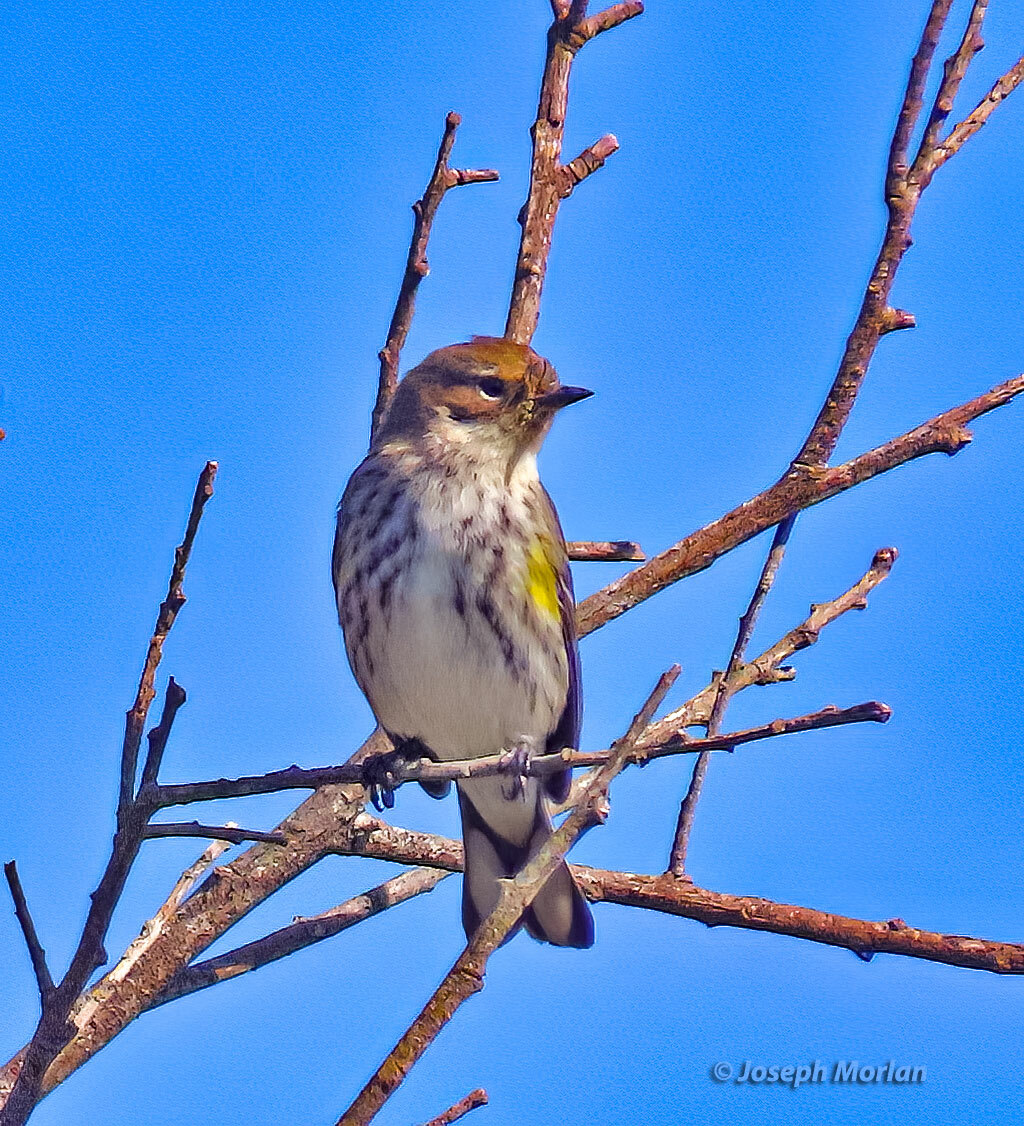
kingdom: Animalia
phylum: Chordata
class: Aves
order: Passeriformes
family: Parulidae
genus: Setophaga
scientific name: Setophaga coronata
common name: Myrtle warbler
